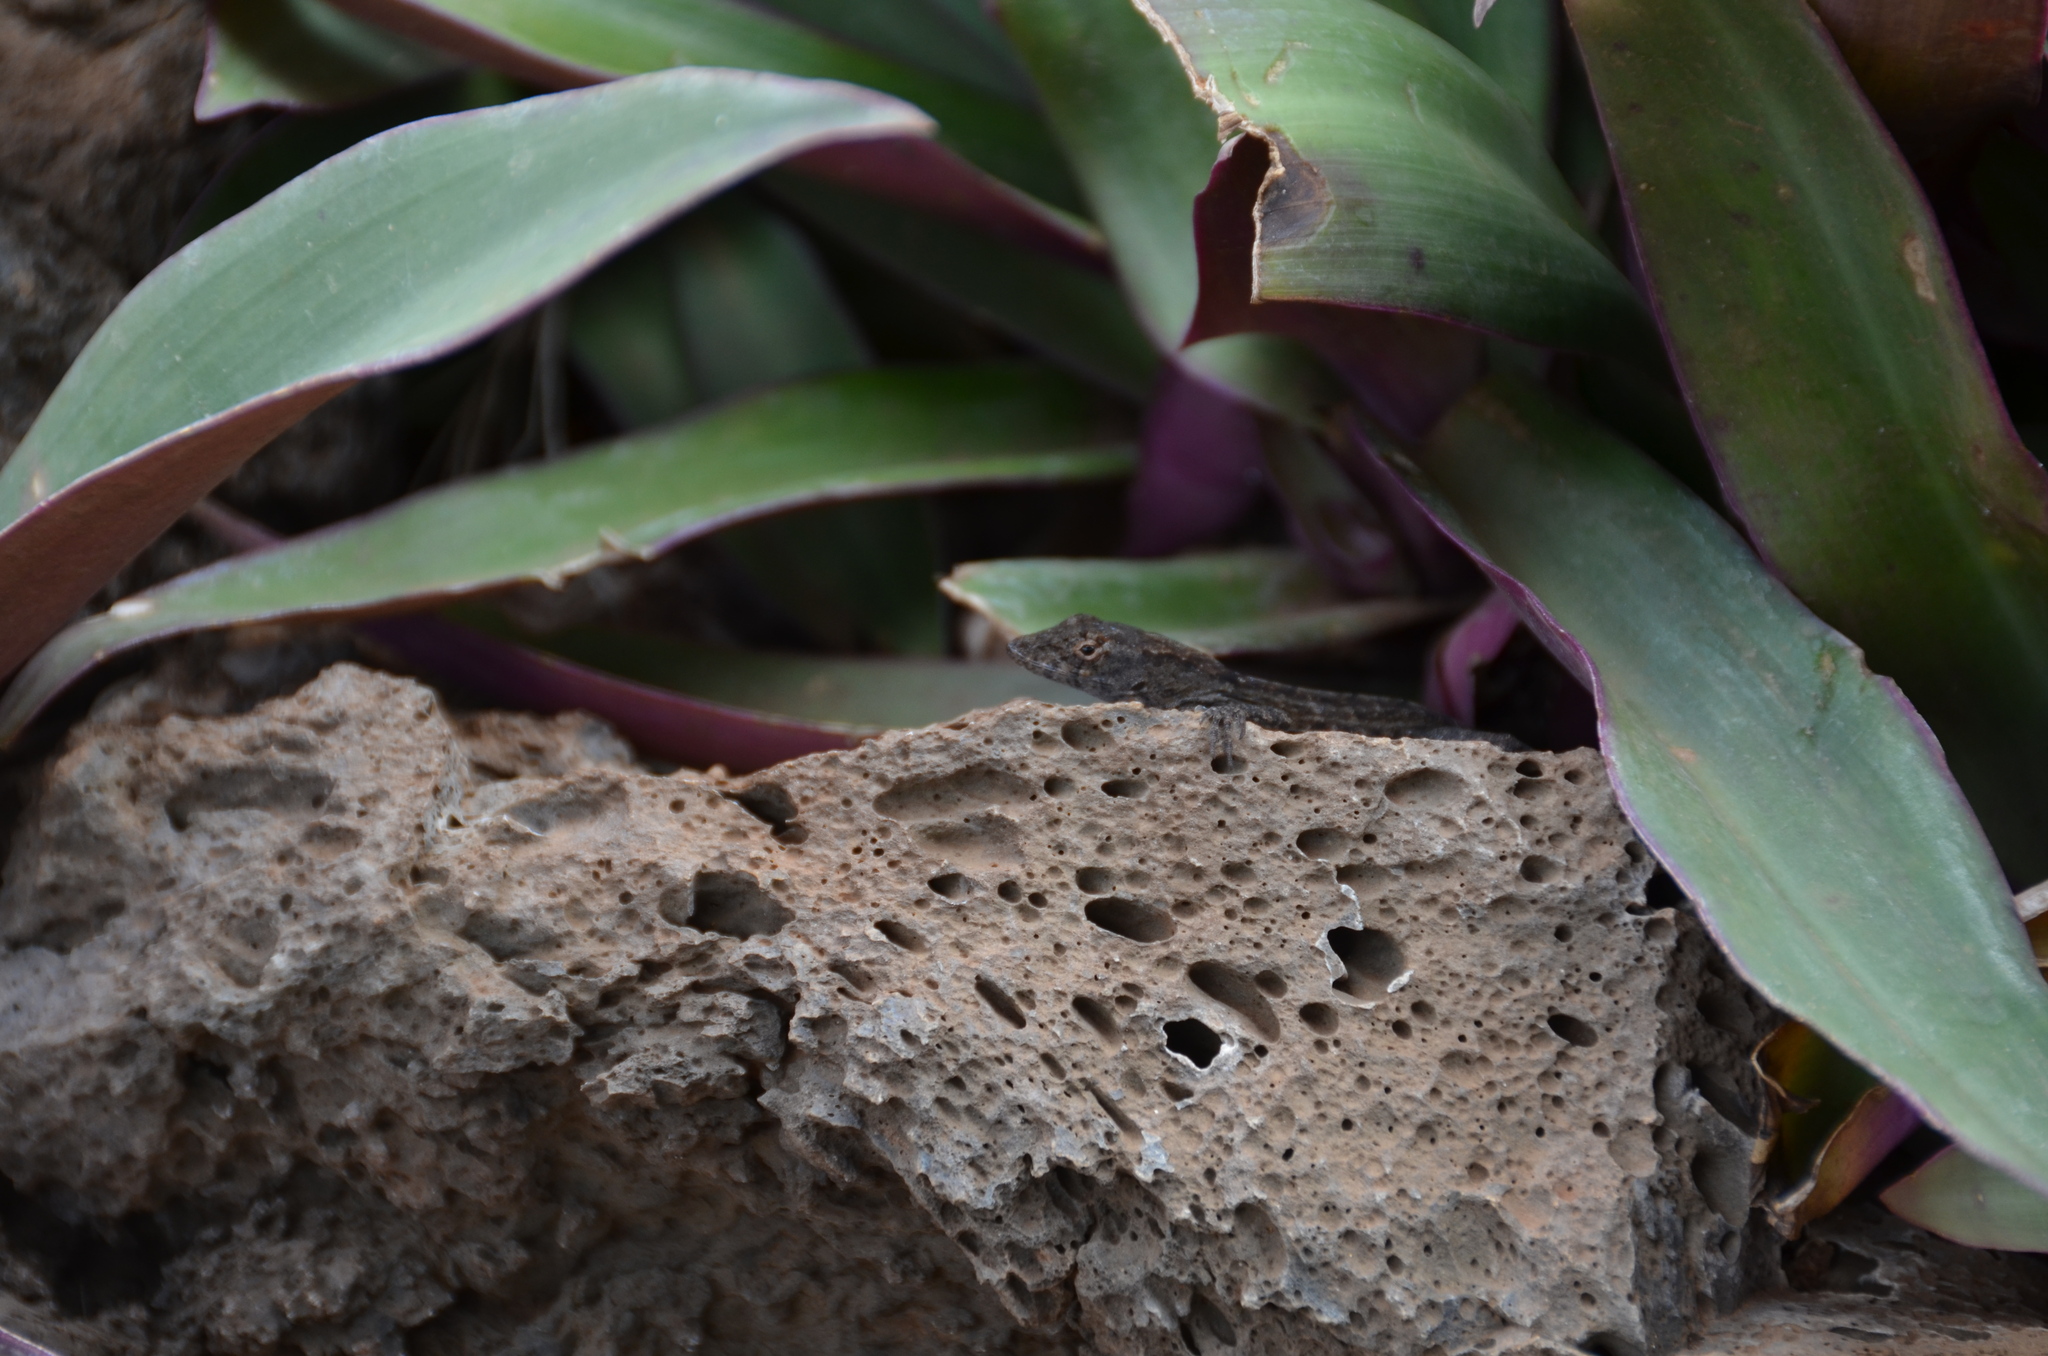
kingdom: Animalia
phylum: Chordata
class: Squamata
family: Dactyloidae
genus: Anolis
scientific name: Anolis sagrei
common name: Brown anole
